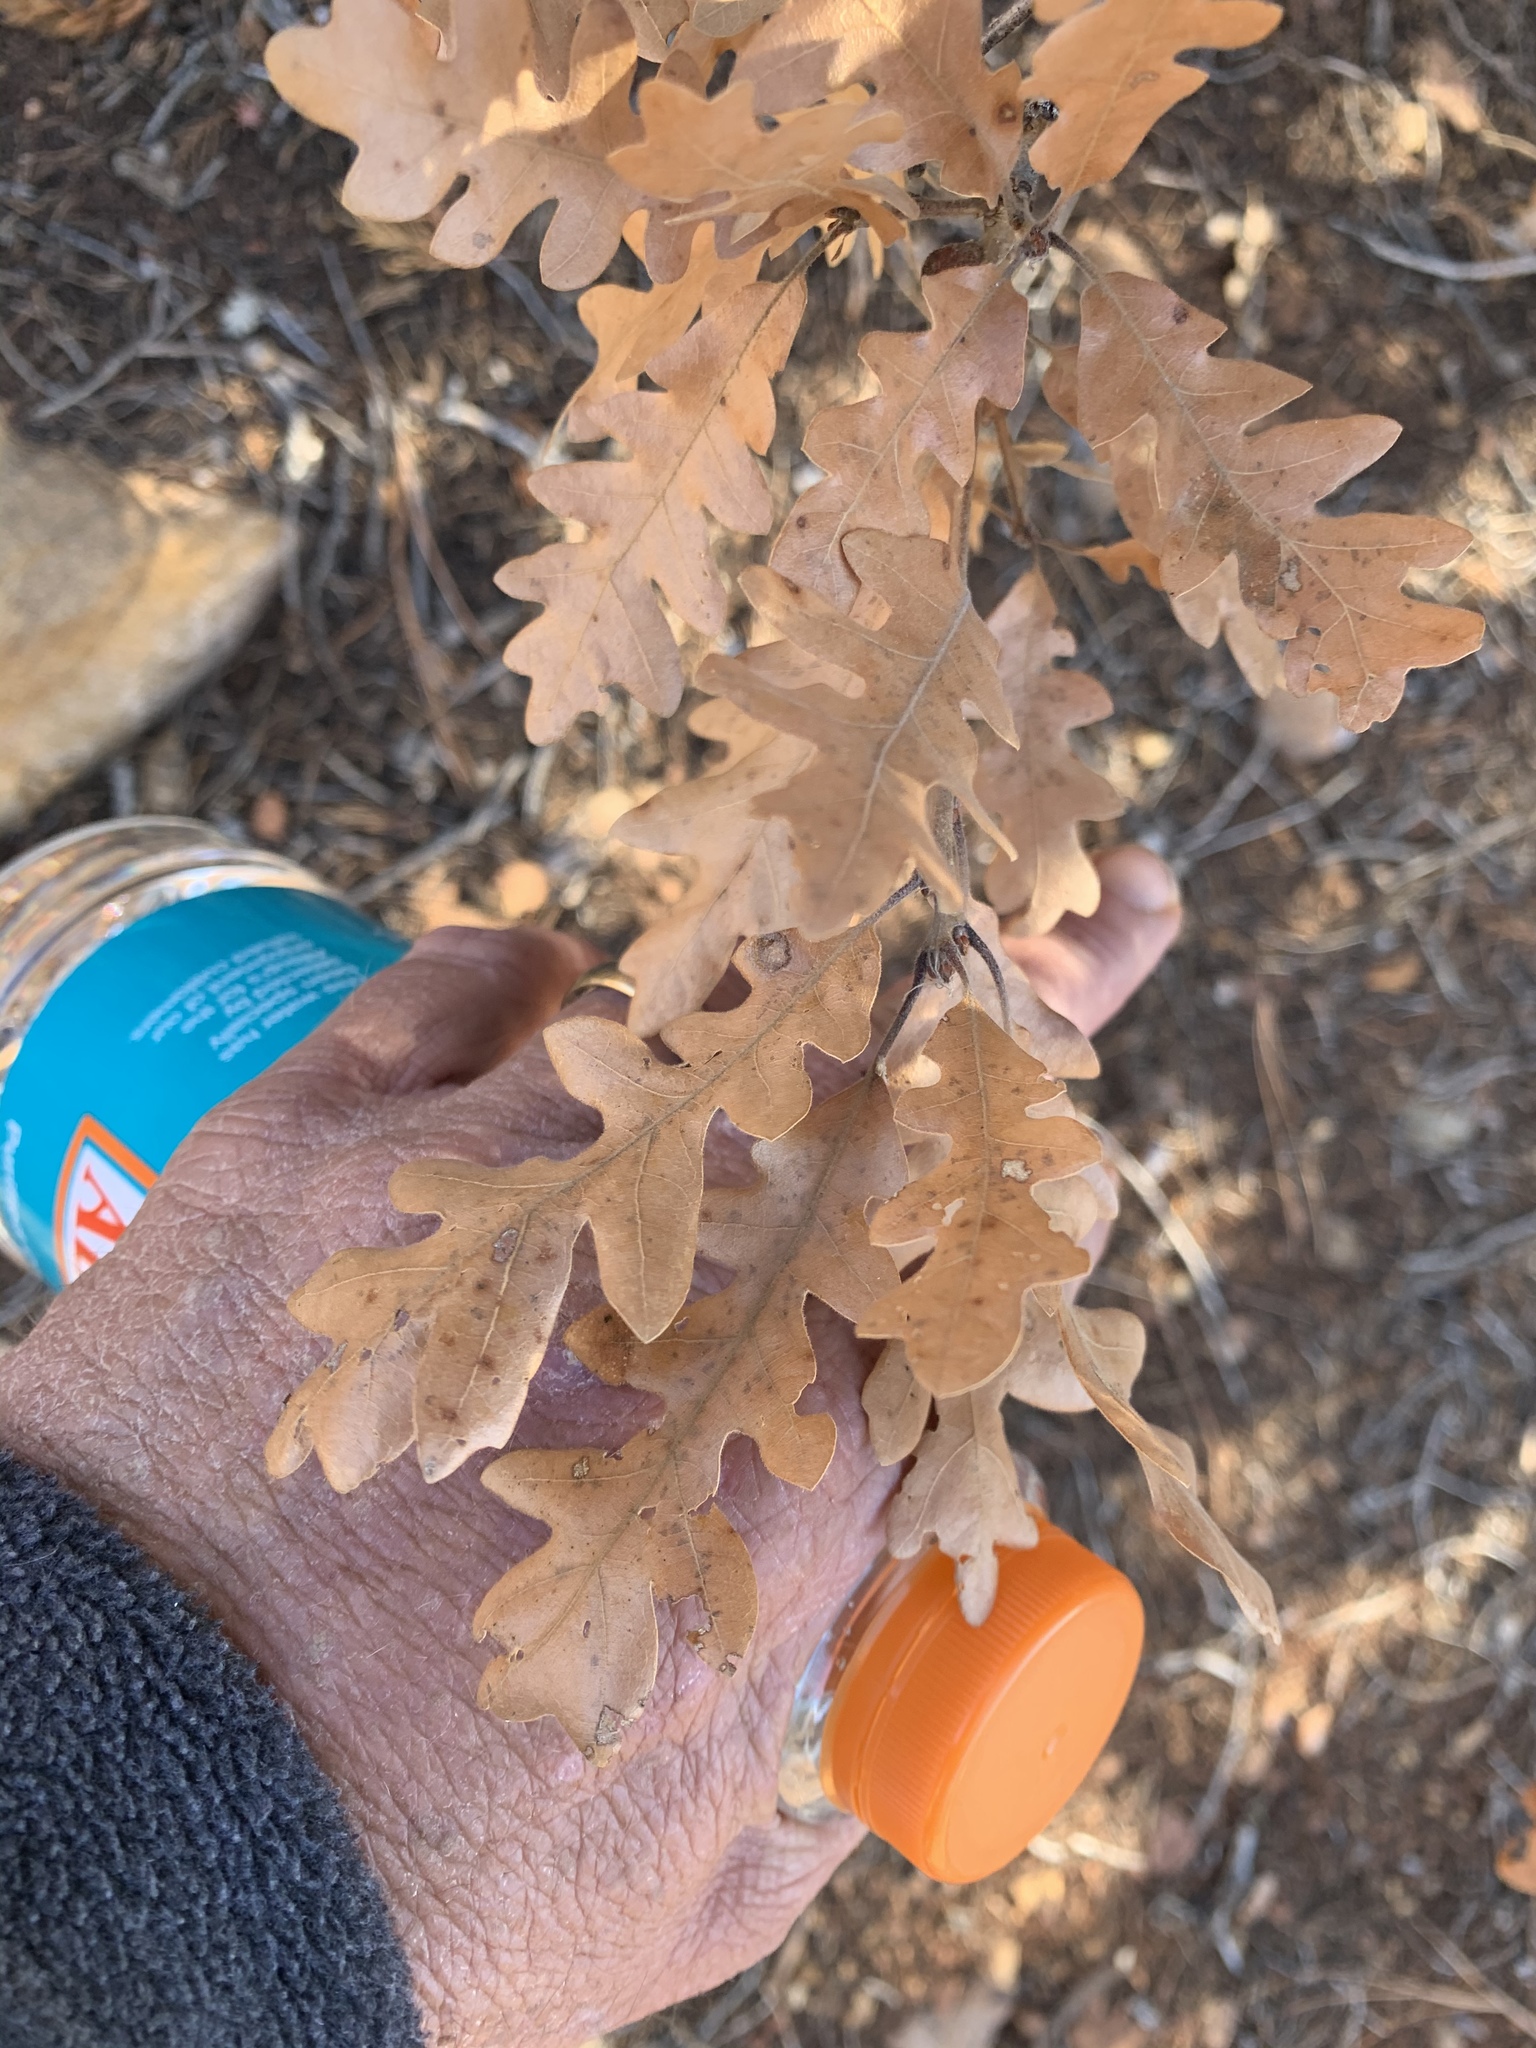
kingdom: Plantae
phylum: Tracheophyta
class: Magnoliopsida
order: Fagales
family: Fagaceae
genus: Quercus
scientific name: Quercus gambelii
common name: Gambel oak
